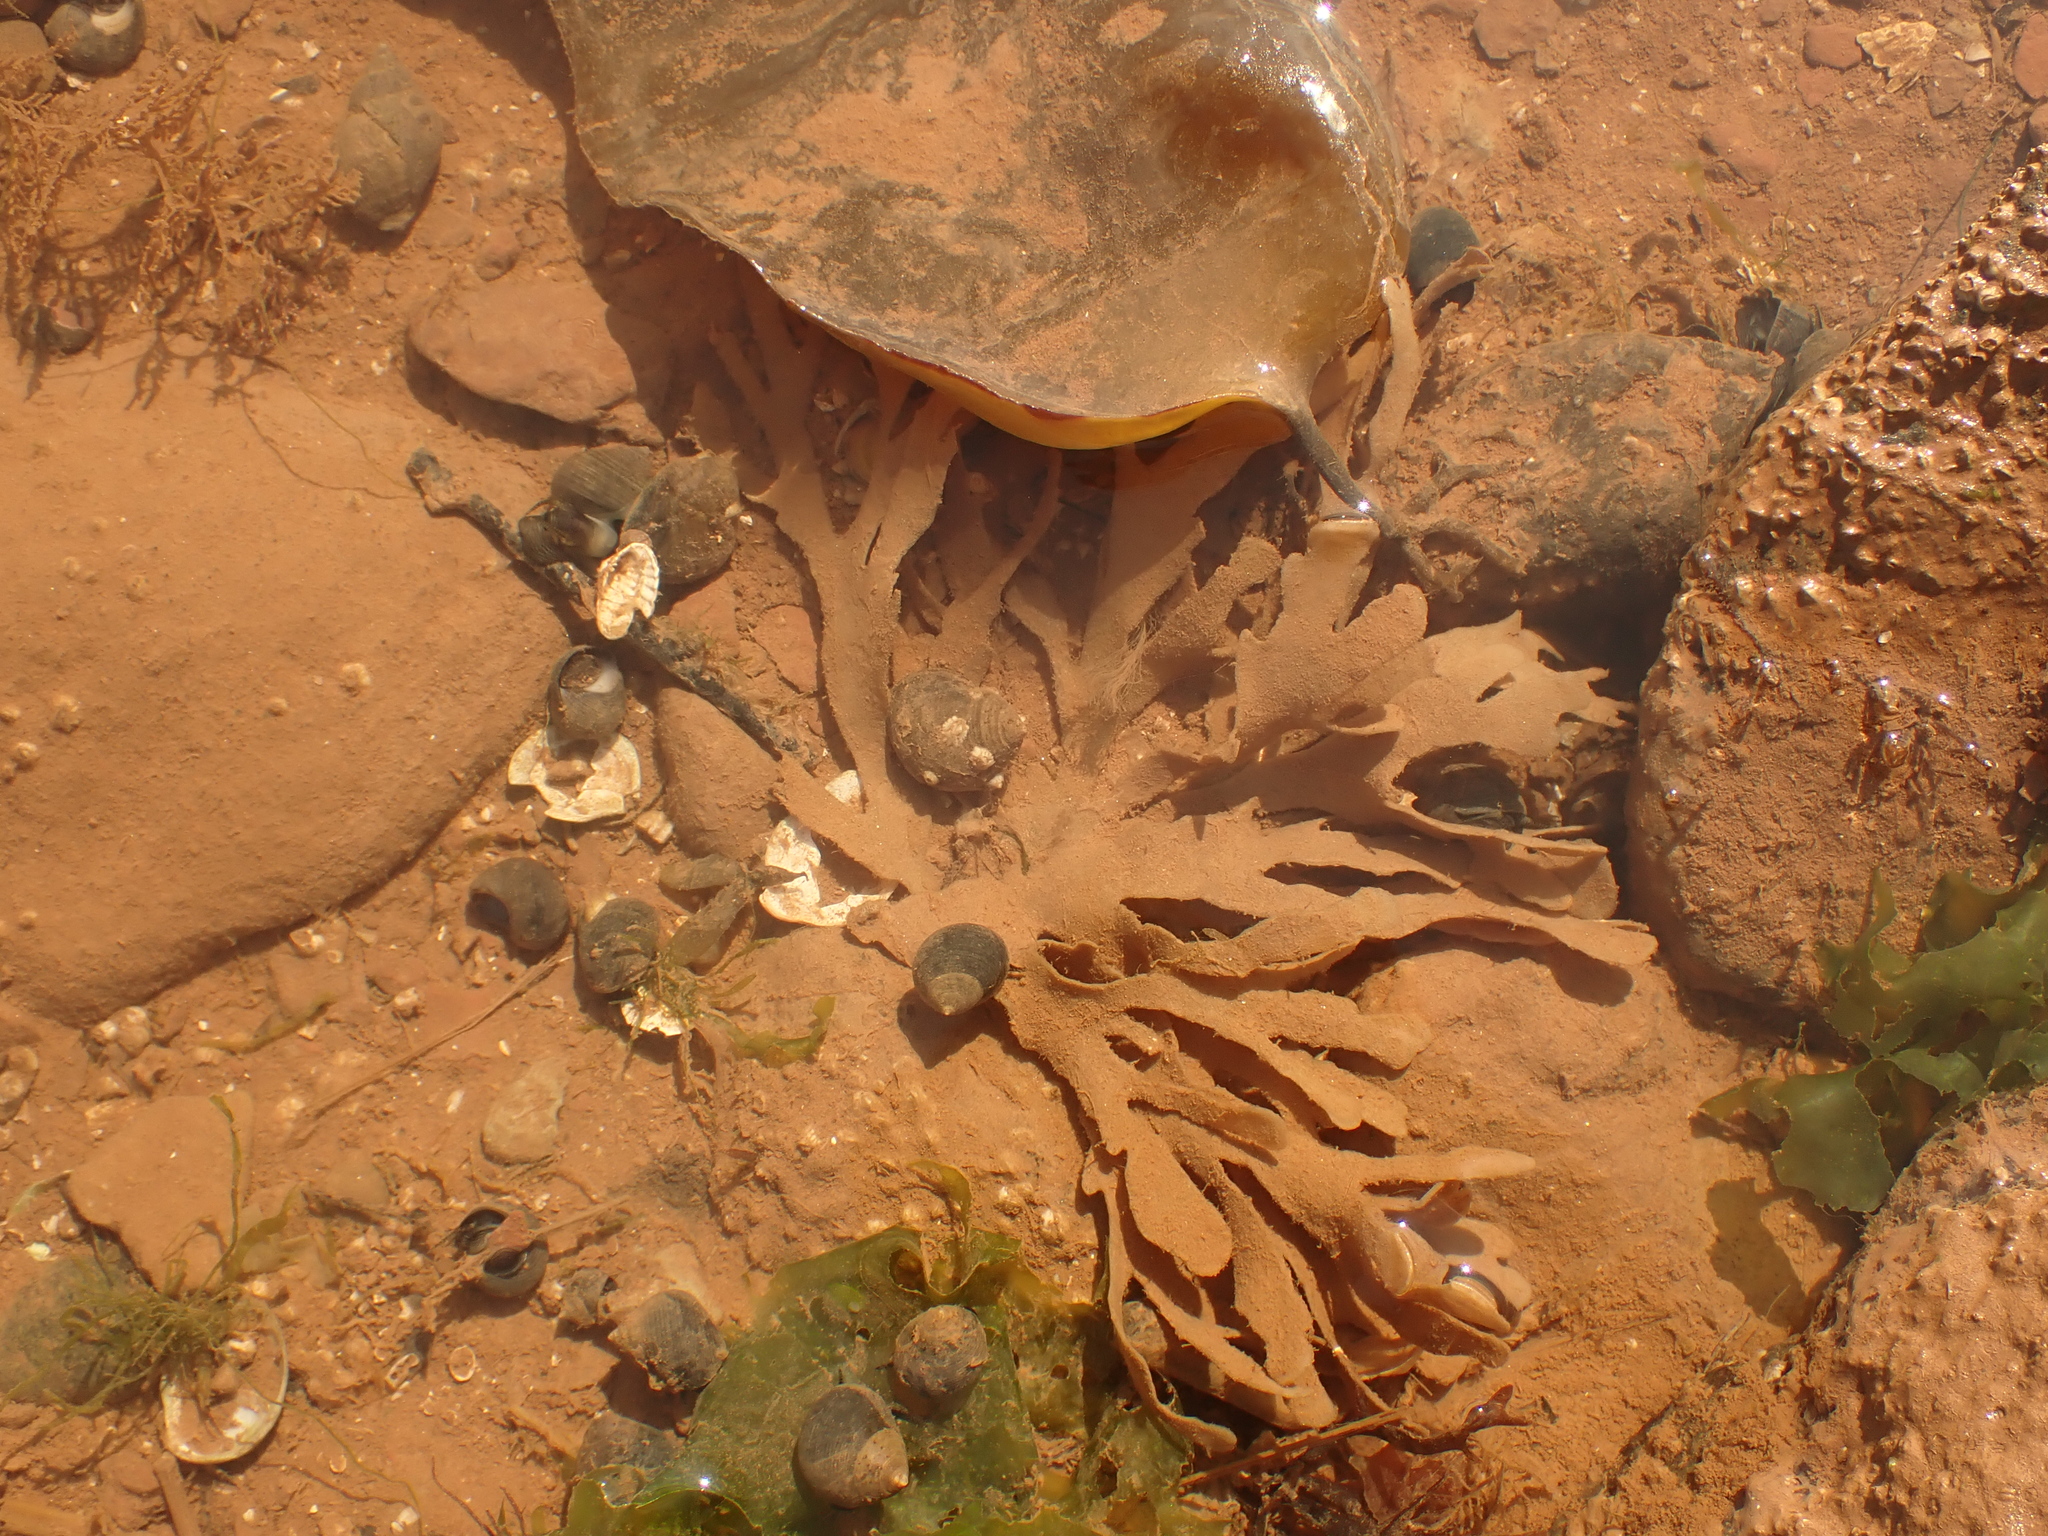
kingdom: Animalia
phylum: Bryozoa
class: Gymnolaemata
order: Cheilostomatida
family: Flustridae
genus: Flustra
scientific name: Flustra foliacea
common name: Hornwrack
